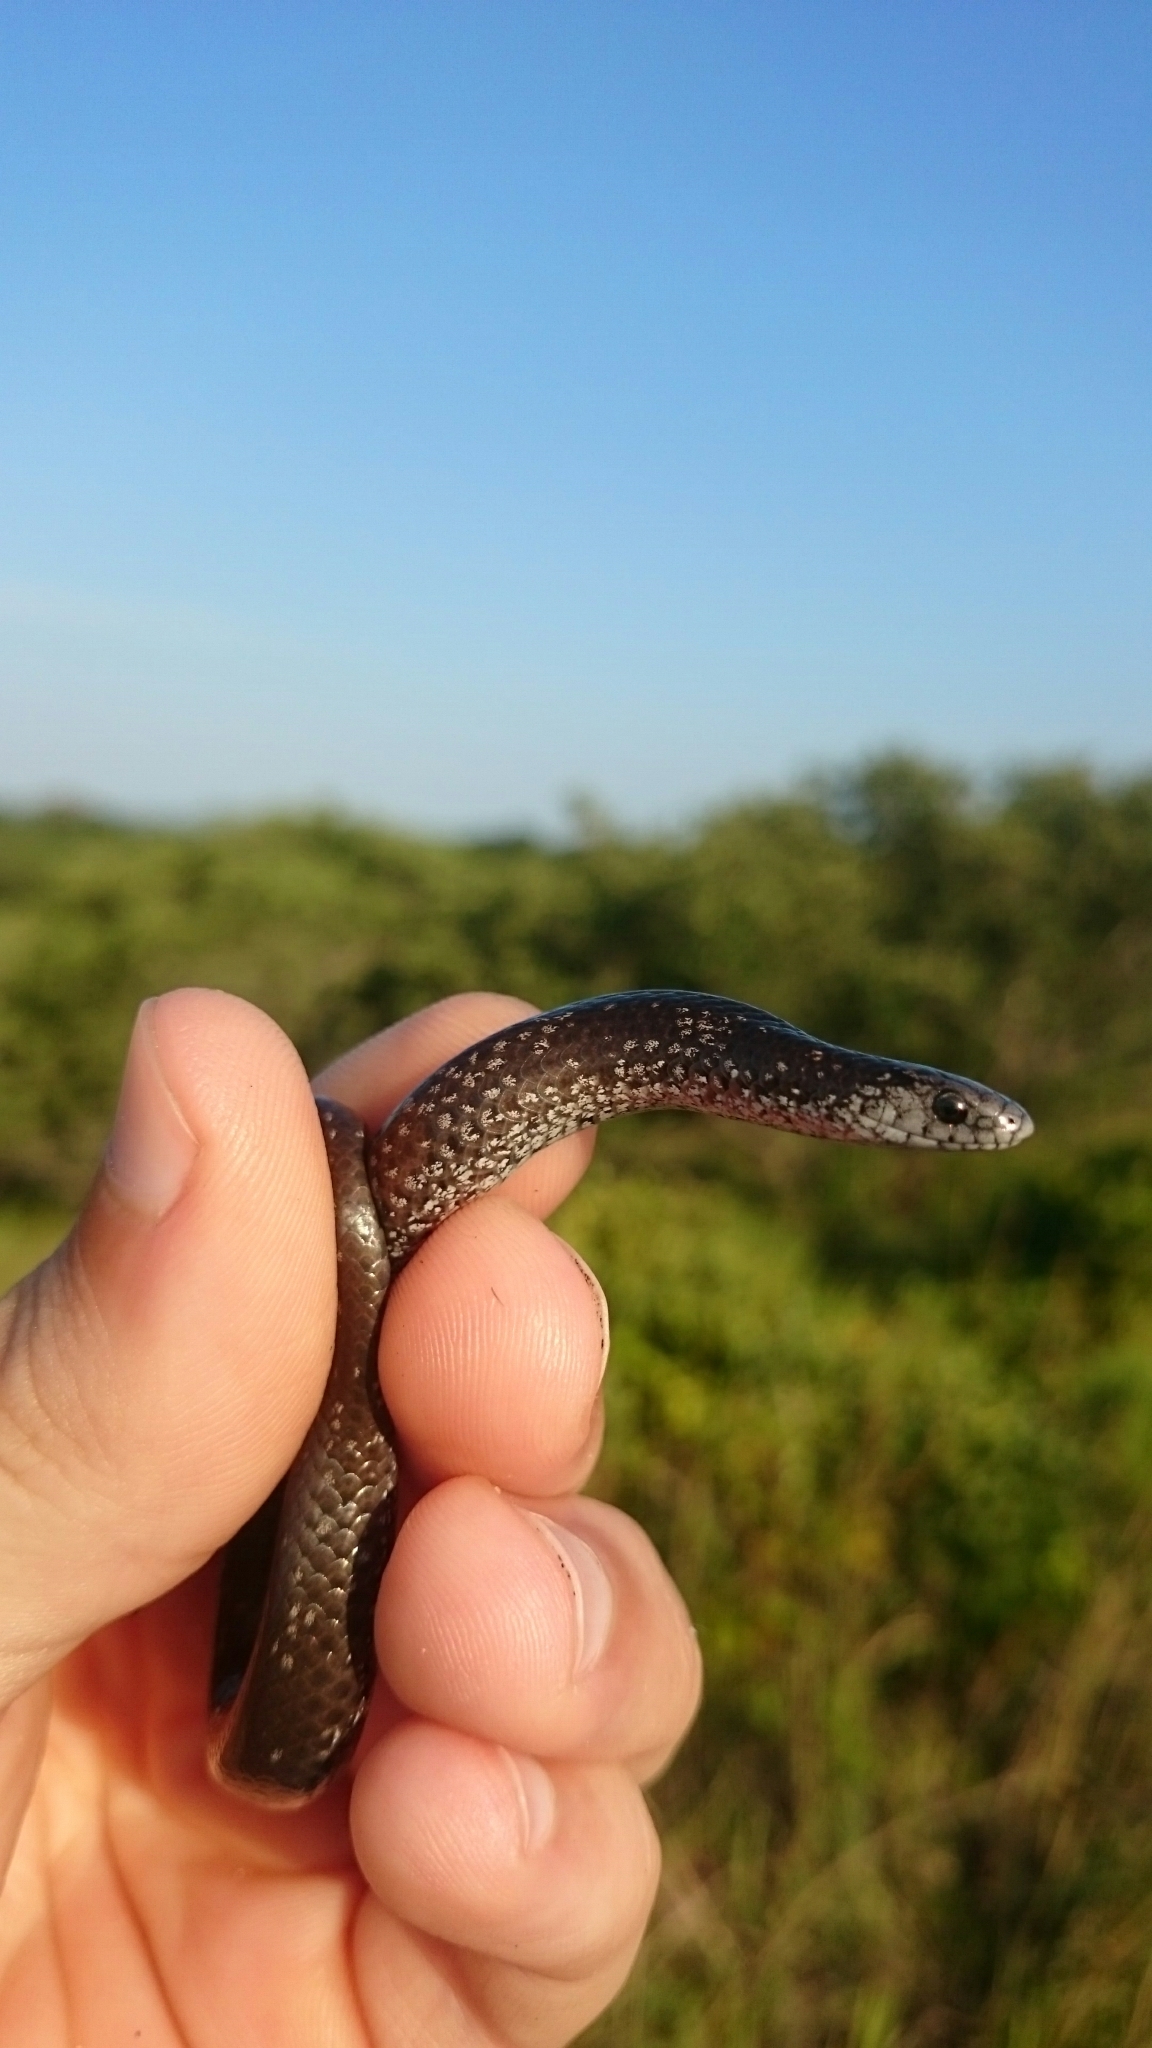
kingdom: Animalia
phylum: Chordata
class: Squamata
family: Pseudoxyrhophiidae
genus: Duberria
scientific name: Duberria variegata
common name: Spotted slug-eater
